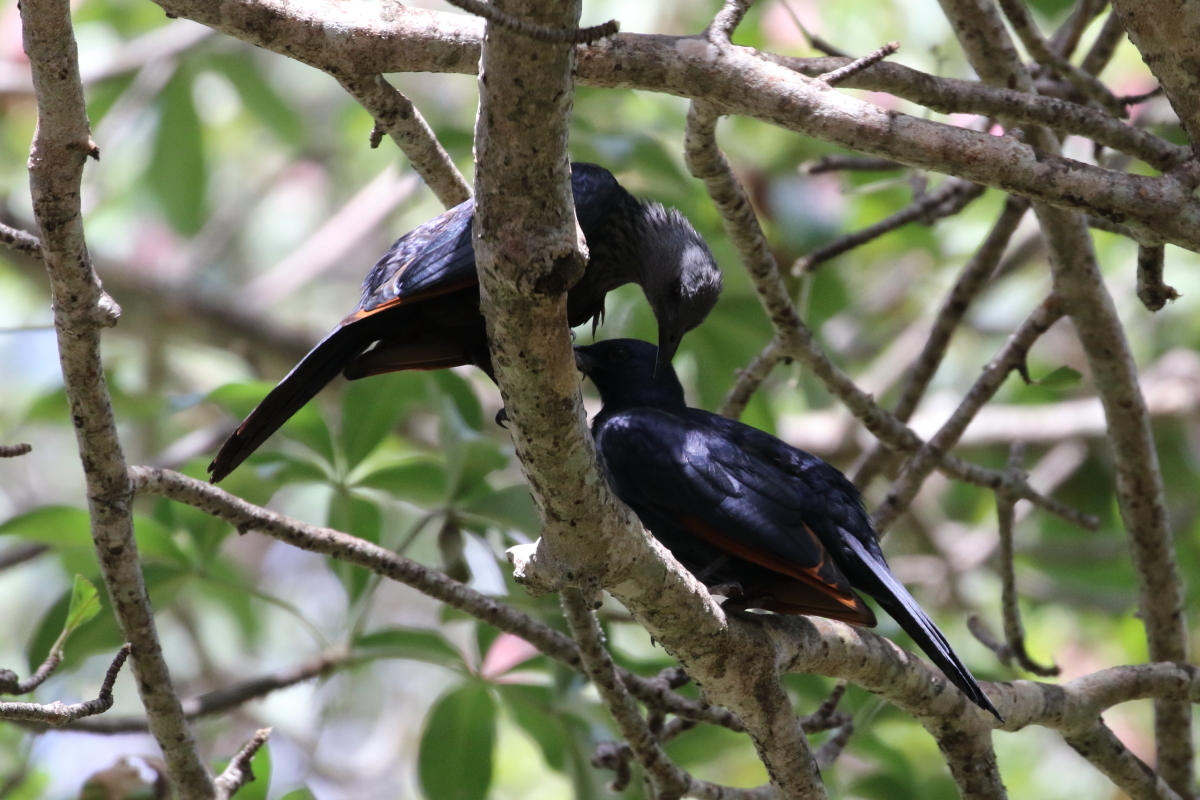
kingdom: Animalia
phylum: Chordata
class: Aves
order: Passeriformes
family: Sturnidae
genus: Onychognathus
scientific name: Onychognathus morio
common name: Red-winged starling
